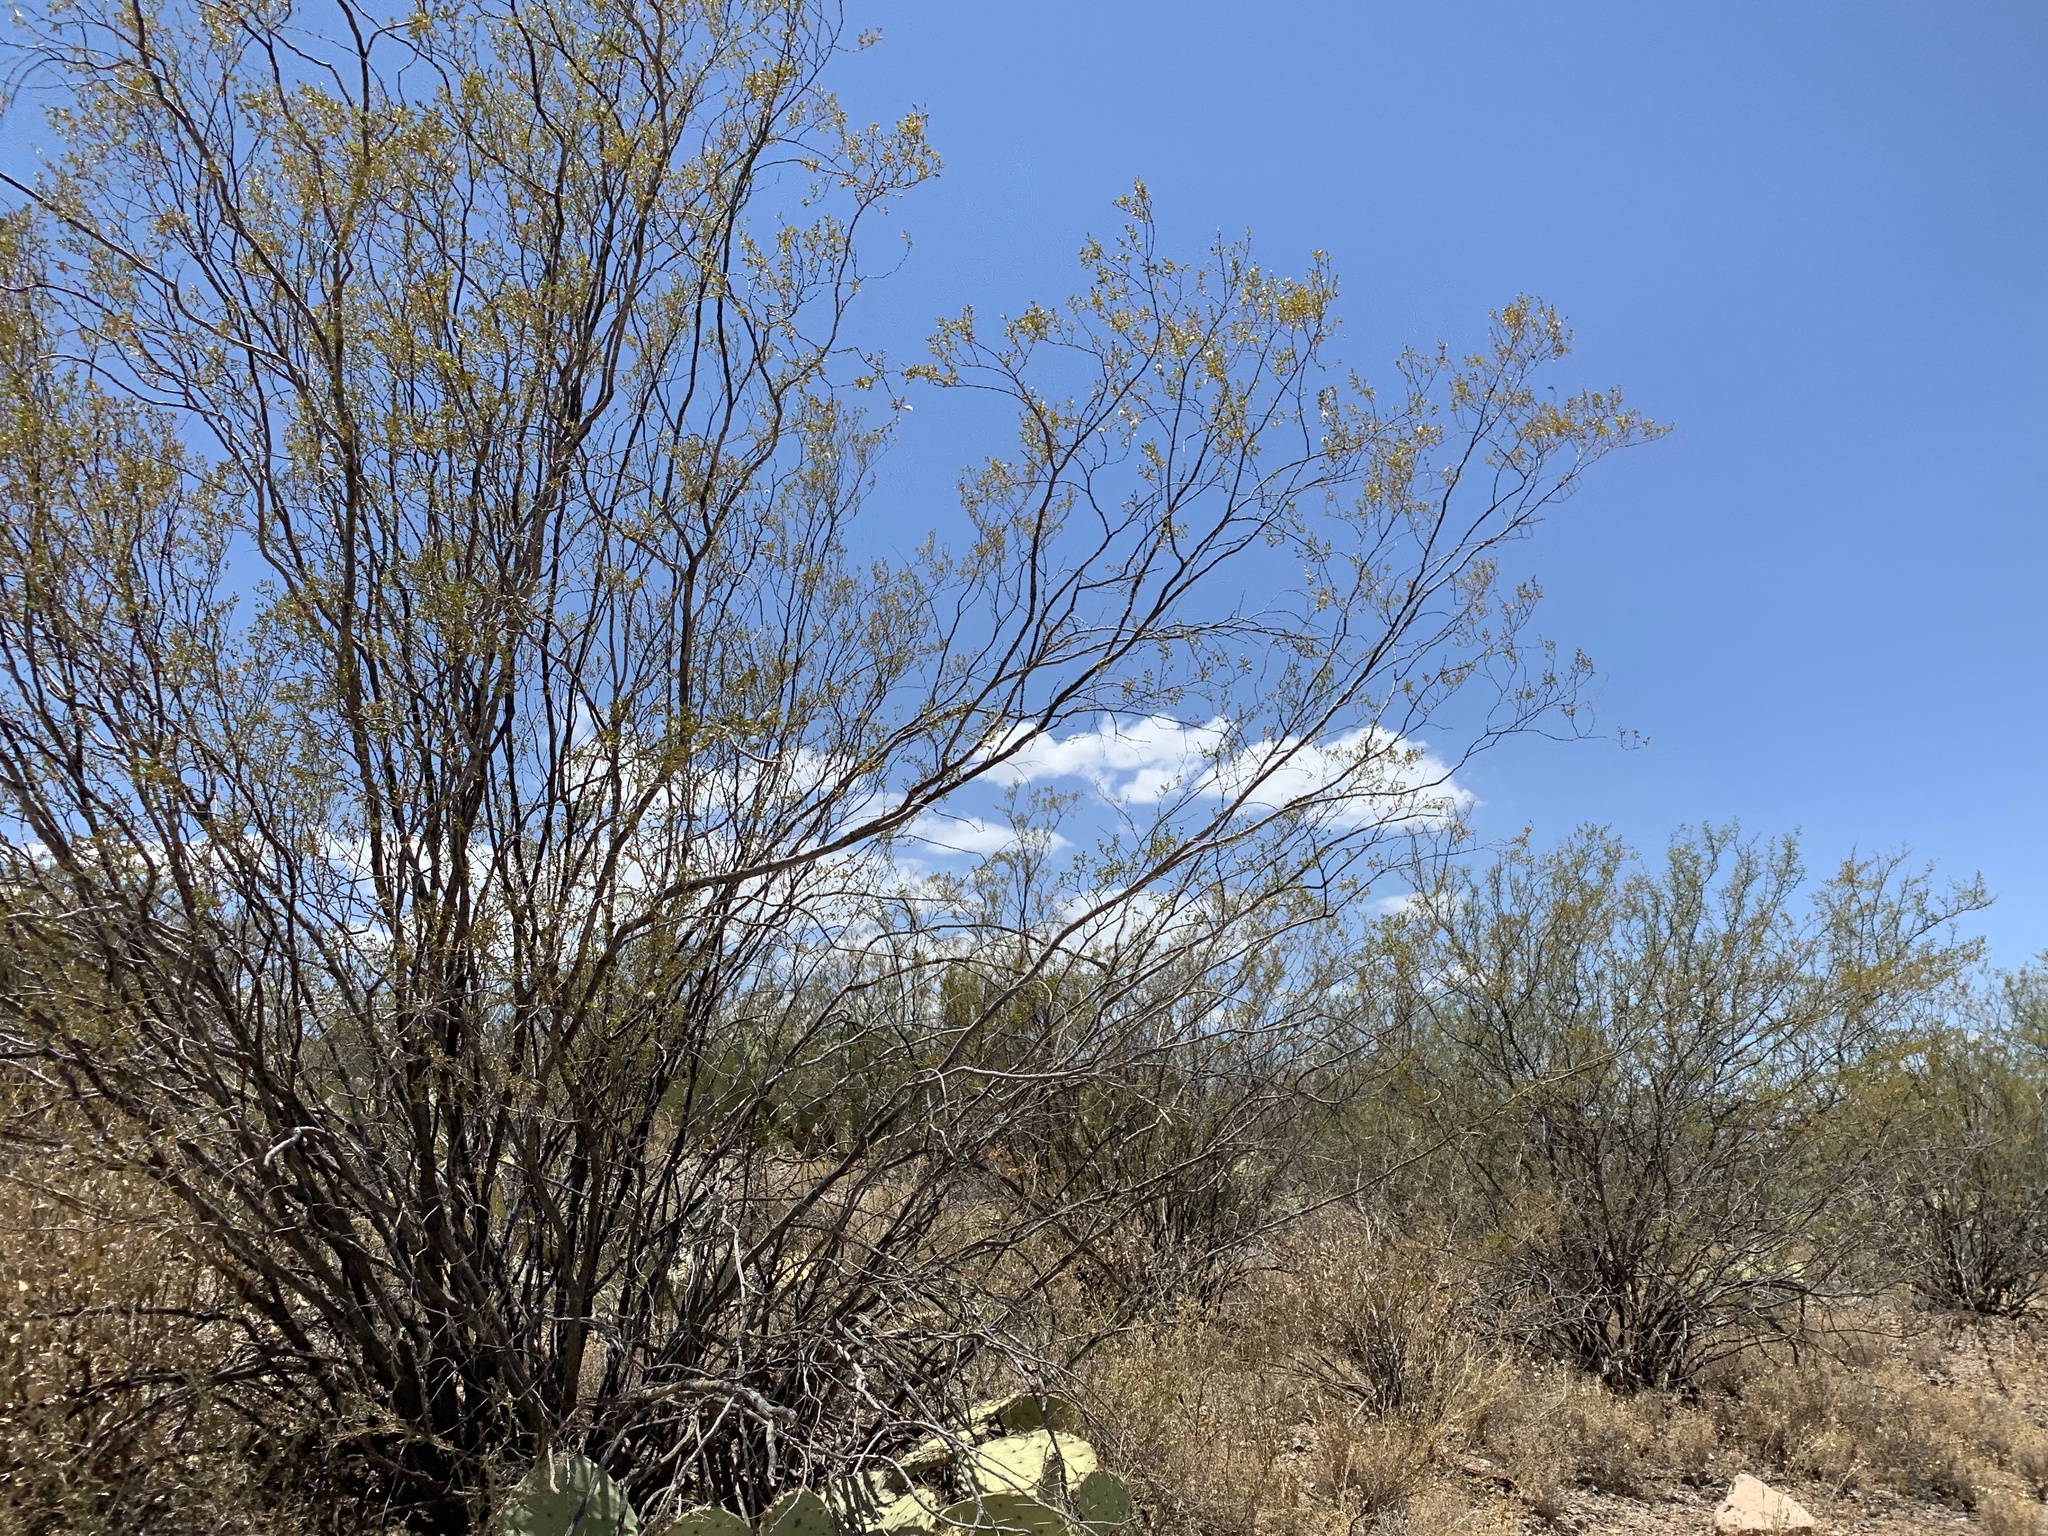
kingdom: Plantae
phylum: Tracheophyta
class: Magnoliopsida
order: Zygophyllales
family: Zygophyllaceae
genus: Larrea
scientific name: Larrea tridentata
